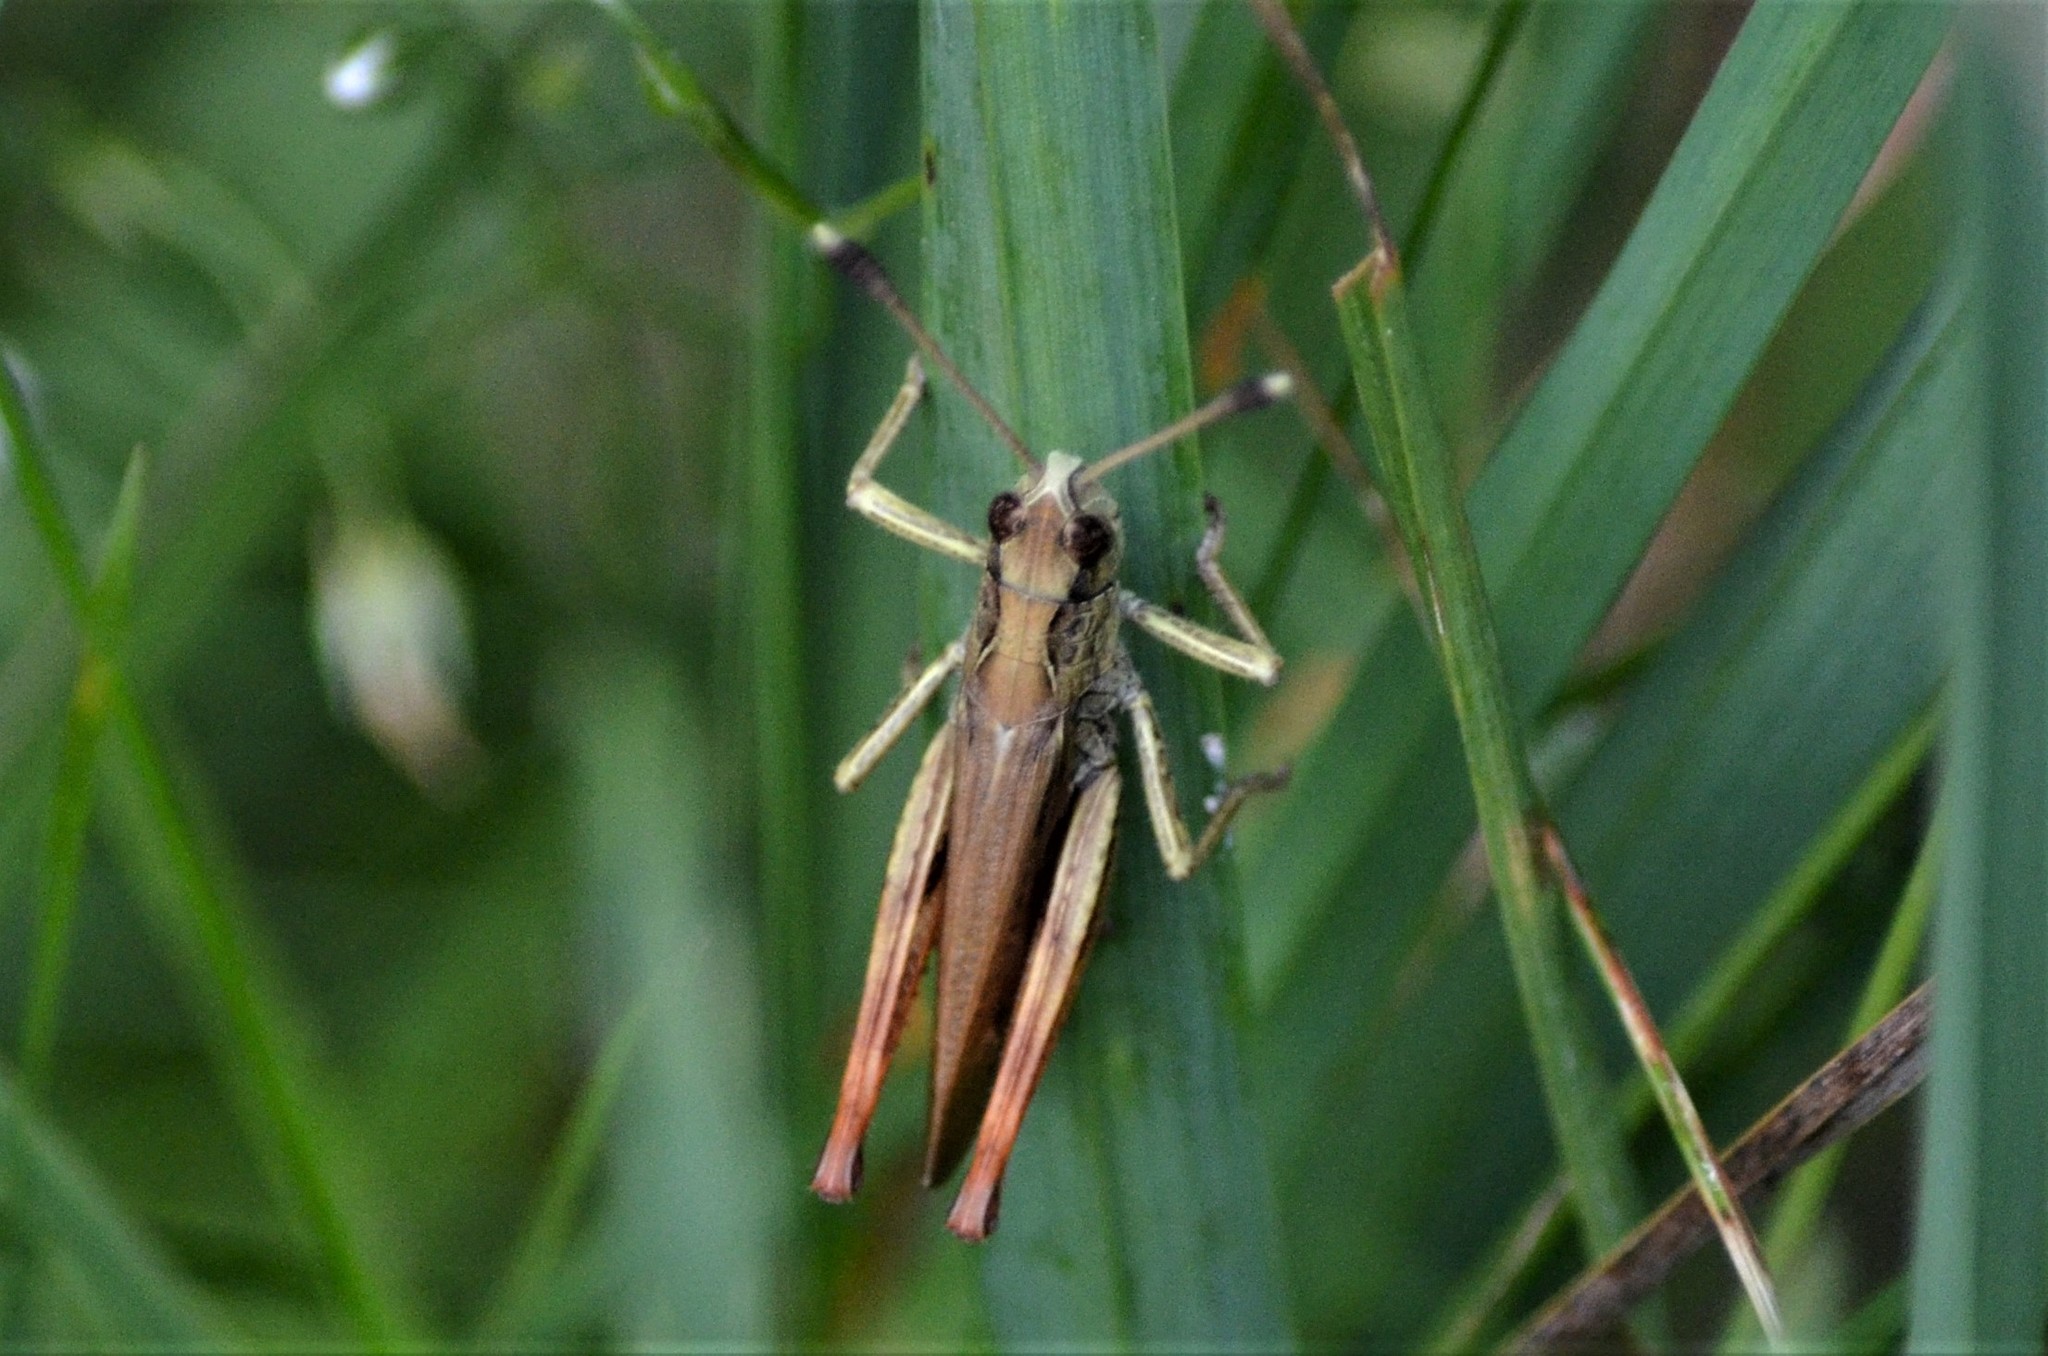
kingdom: Animalia
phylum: Arthropoda
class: Insecta
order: Orthoptera
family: Acrididae
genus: Gomphocerippus
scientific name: Gomphocerippus rufus
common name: Rufous grasshopper
